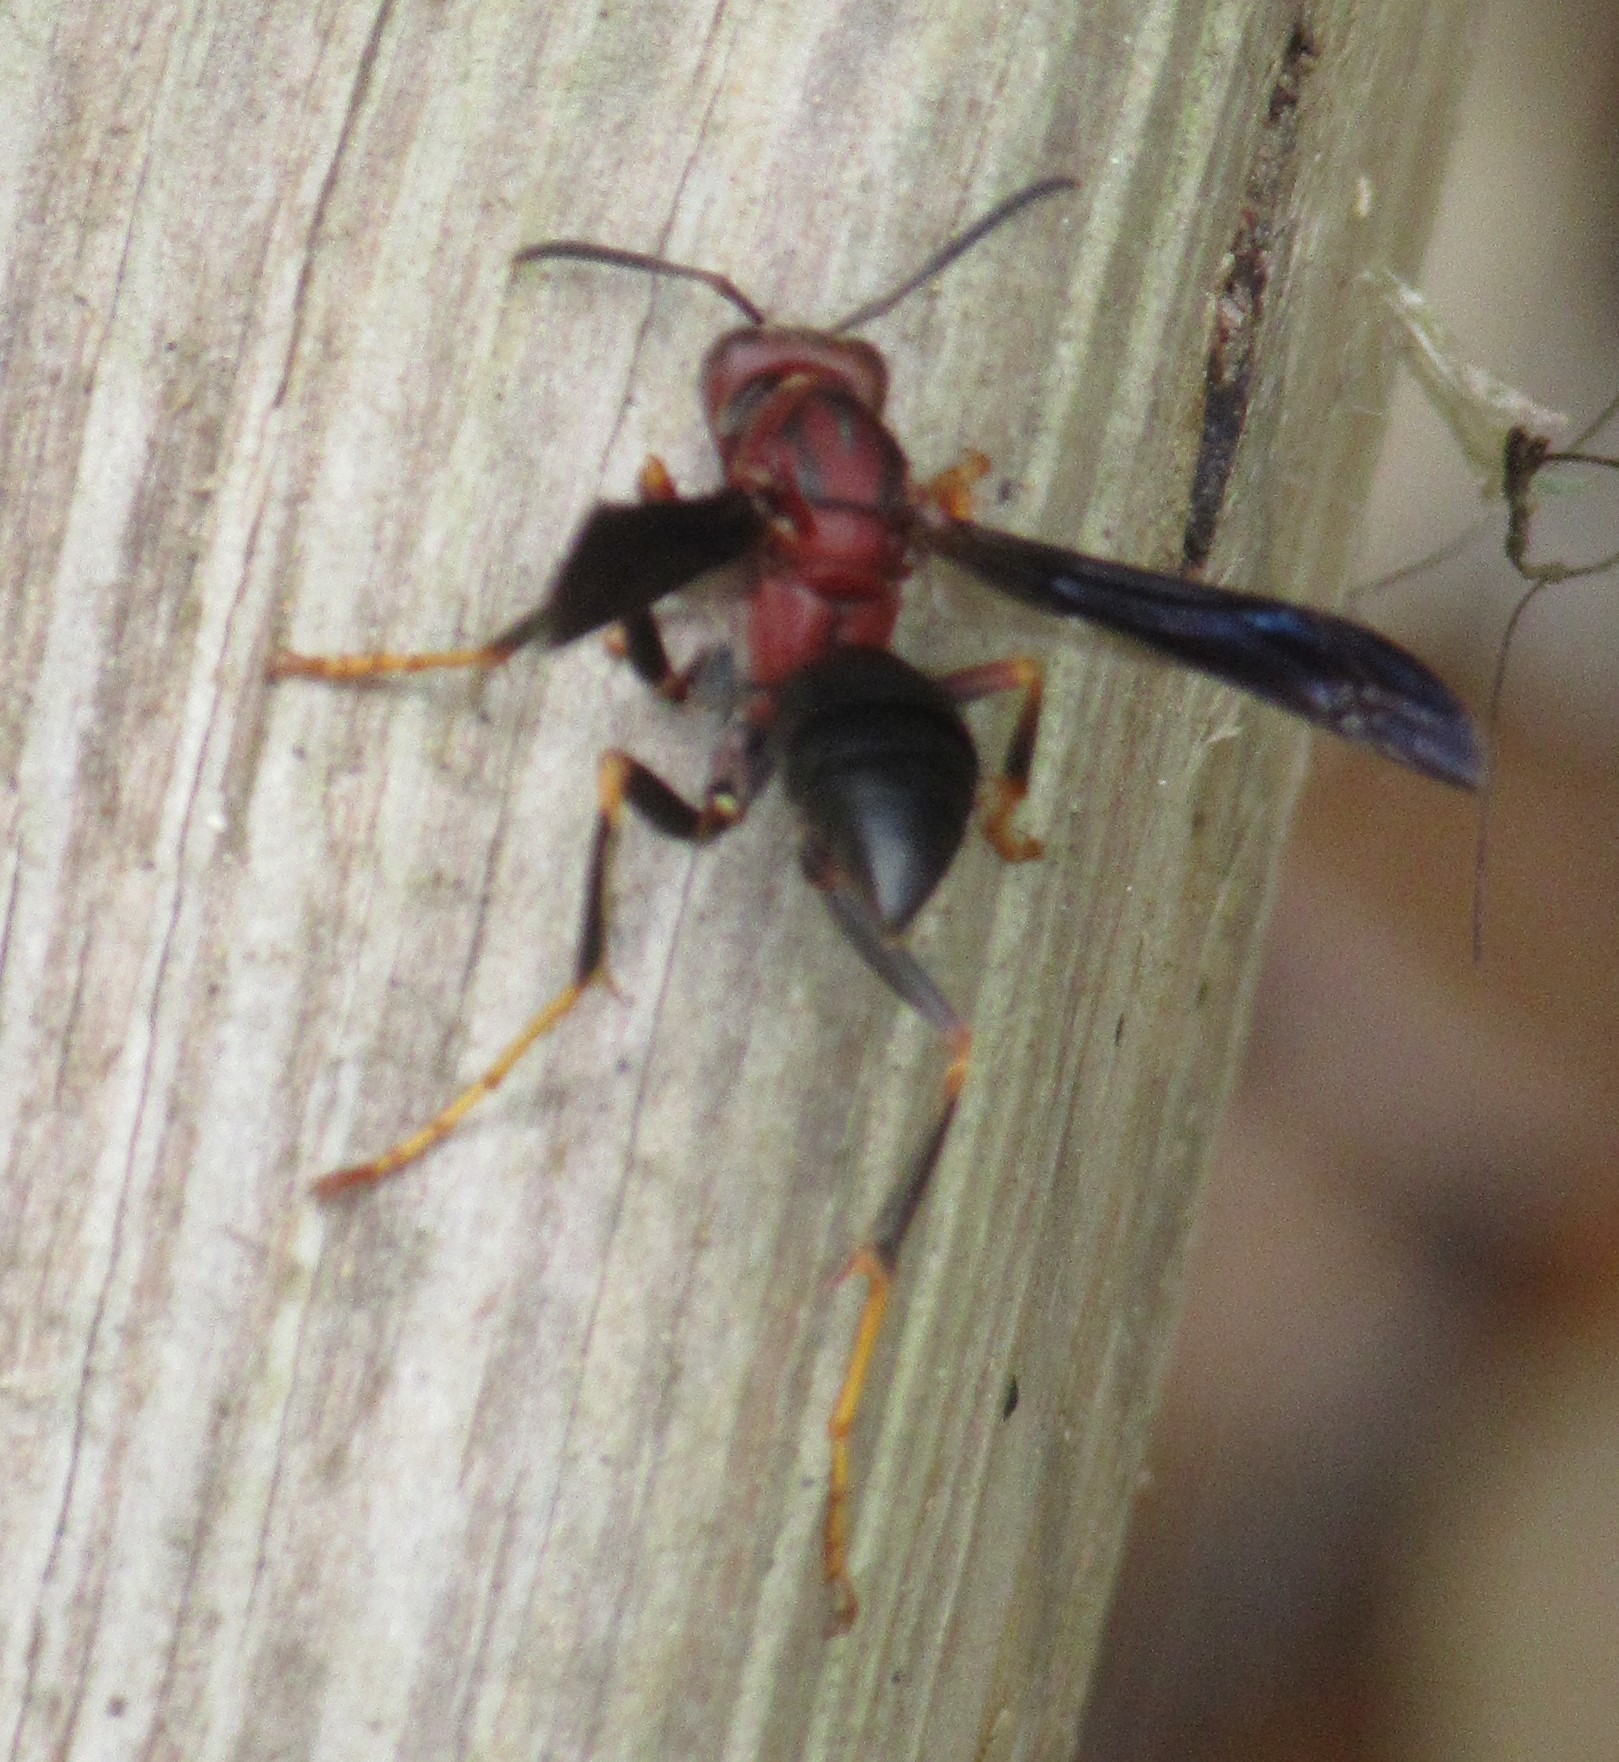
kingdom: Animalia
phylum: Arthropoda
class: Insecta
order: Hymenoptera
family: Eumenidae
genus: Polistes
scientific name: Polistes metricus
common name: Metric paper wasp
